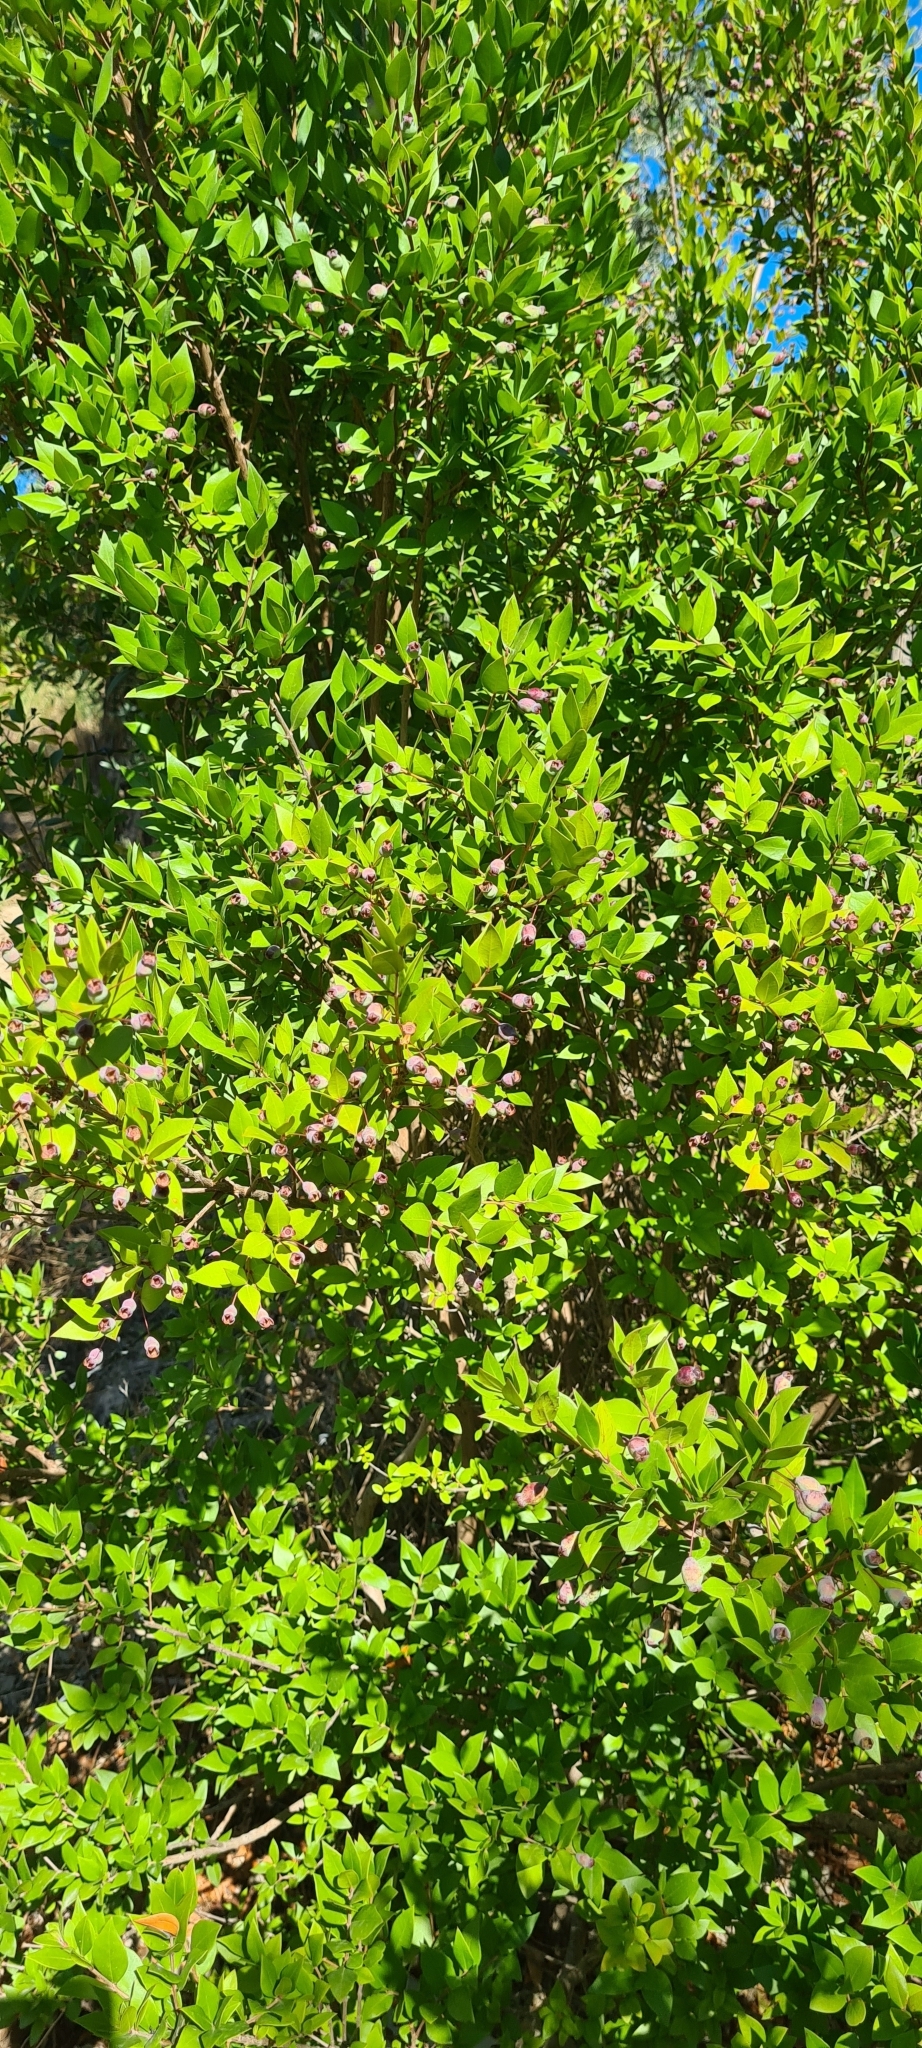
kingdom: Plantae
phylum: Tracheophyta
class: Magnoliopsida
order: Myrtales
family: Myrtaceae
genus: Myrtus
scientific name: Myrtus communis
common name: Myrtle
